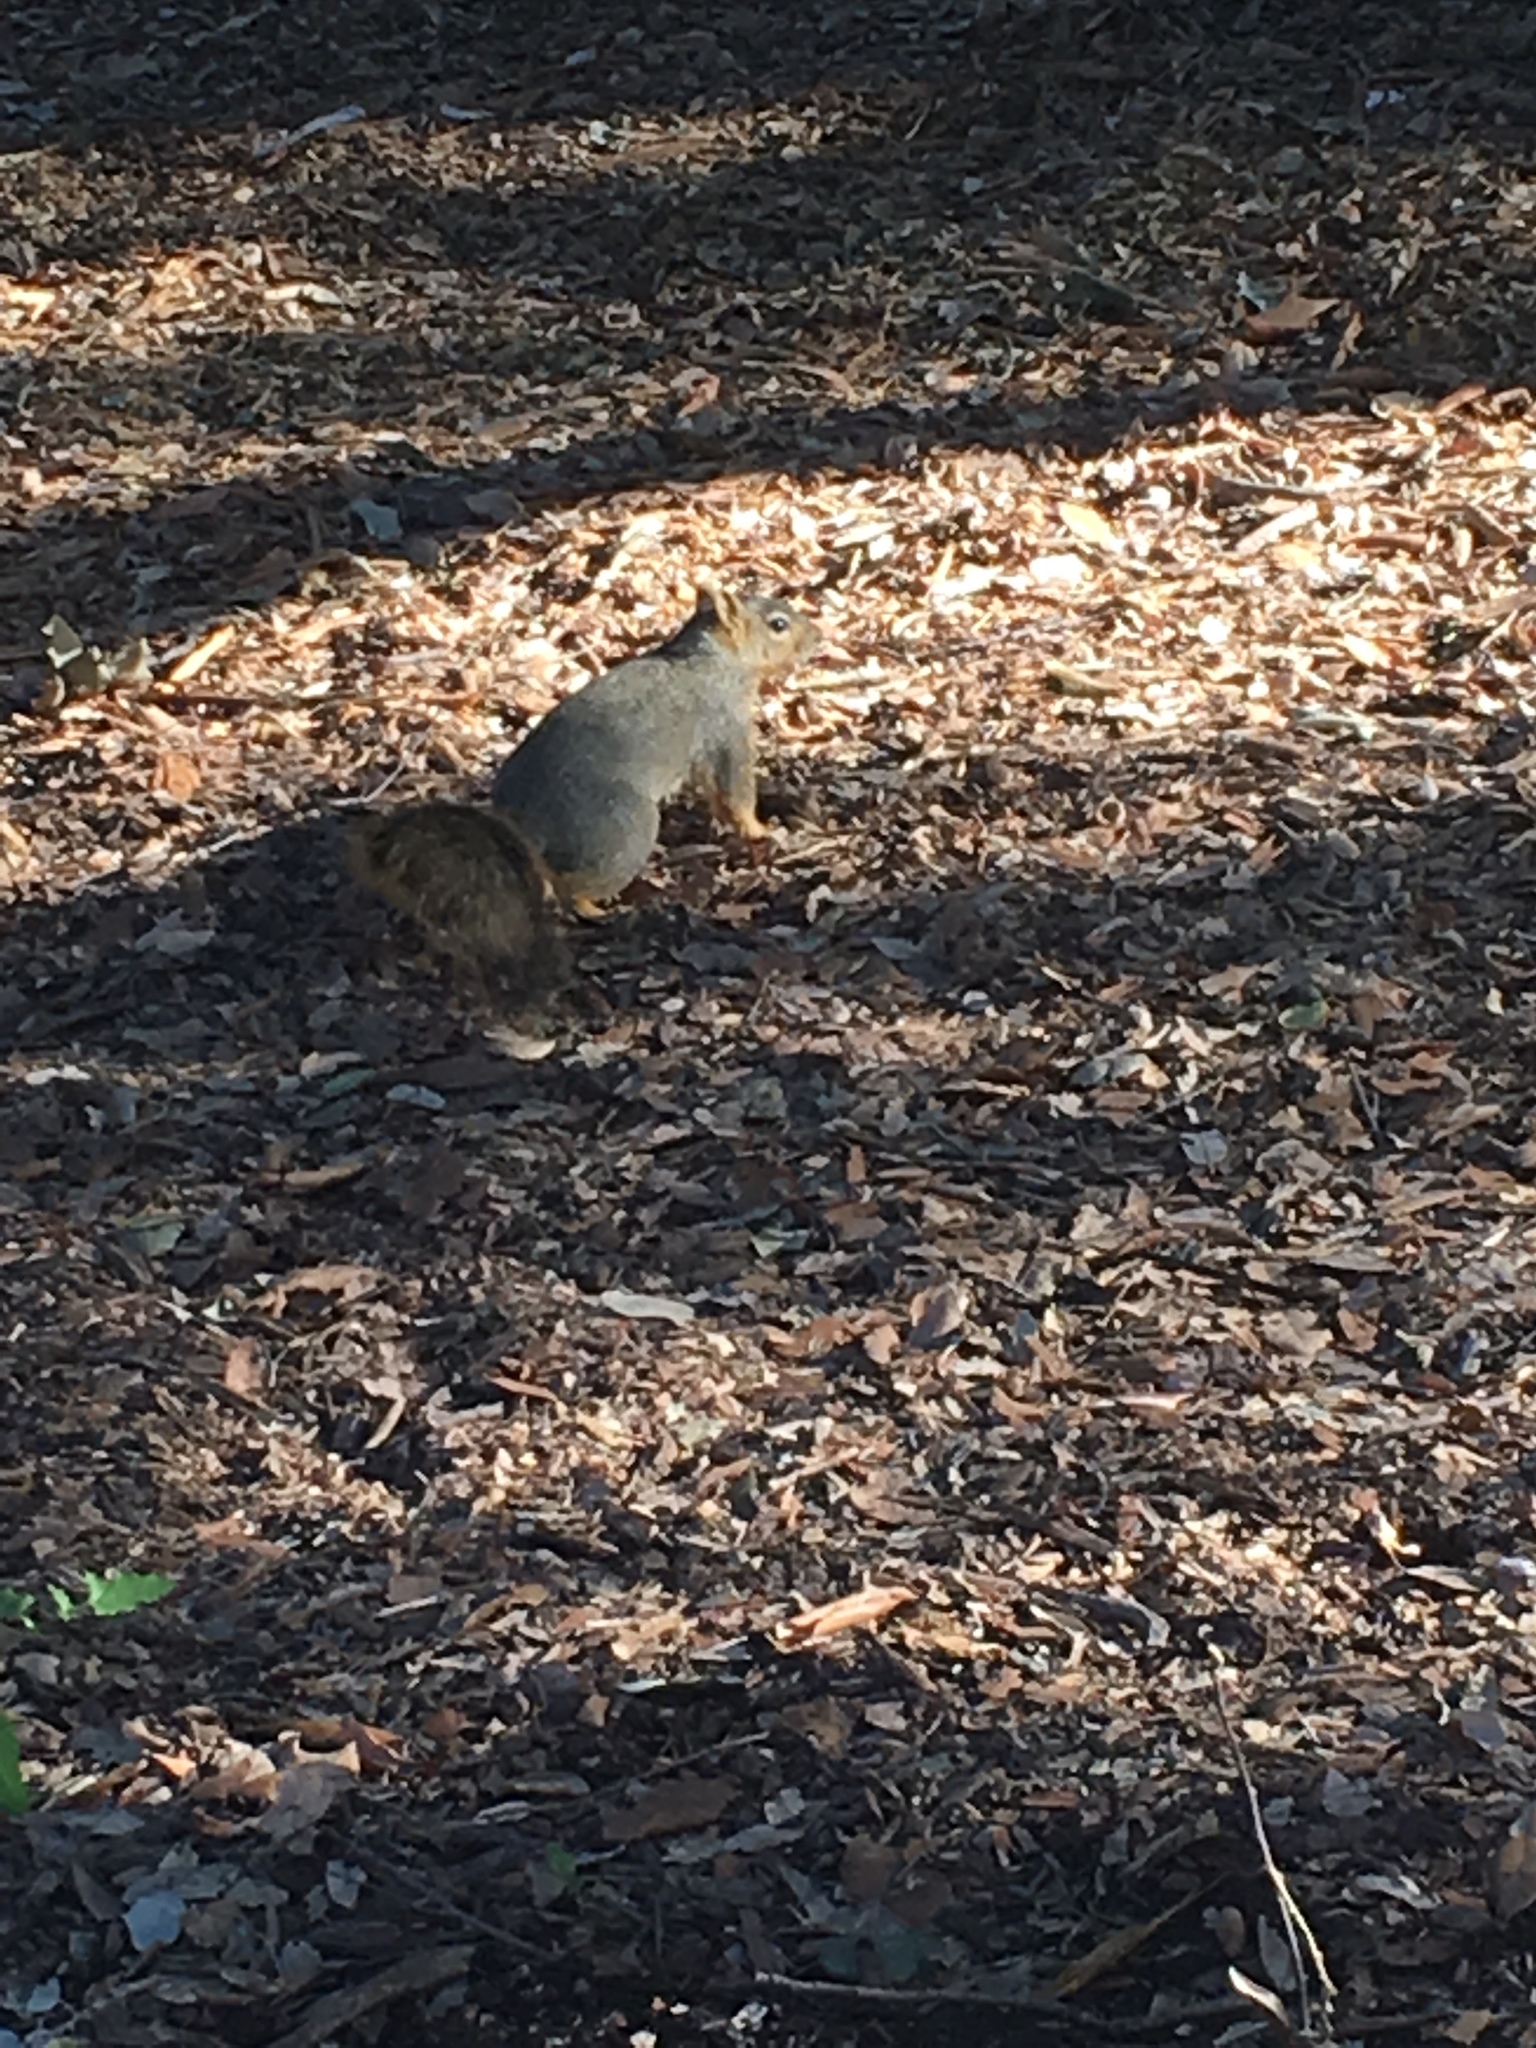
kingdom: Animalia
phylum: Chordata
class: Mammalia
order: Rodentia
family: Sciuridae
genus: Sciurus
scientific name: Sciurus niger
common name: Fox squirrel
